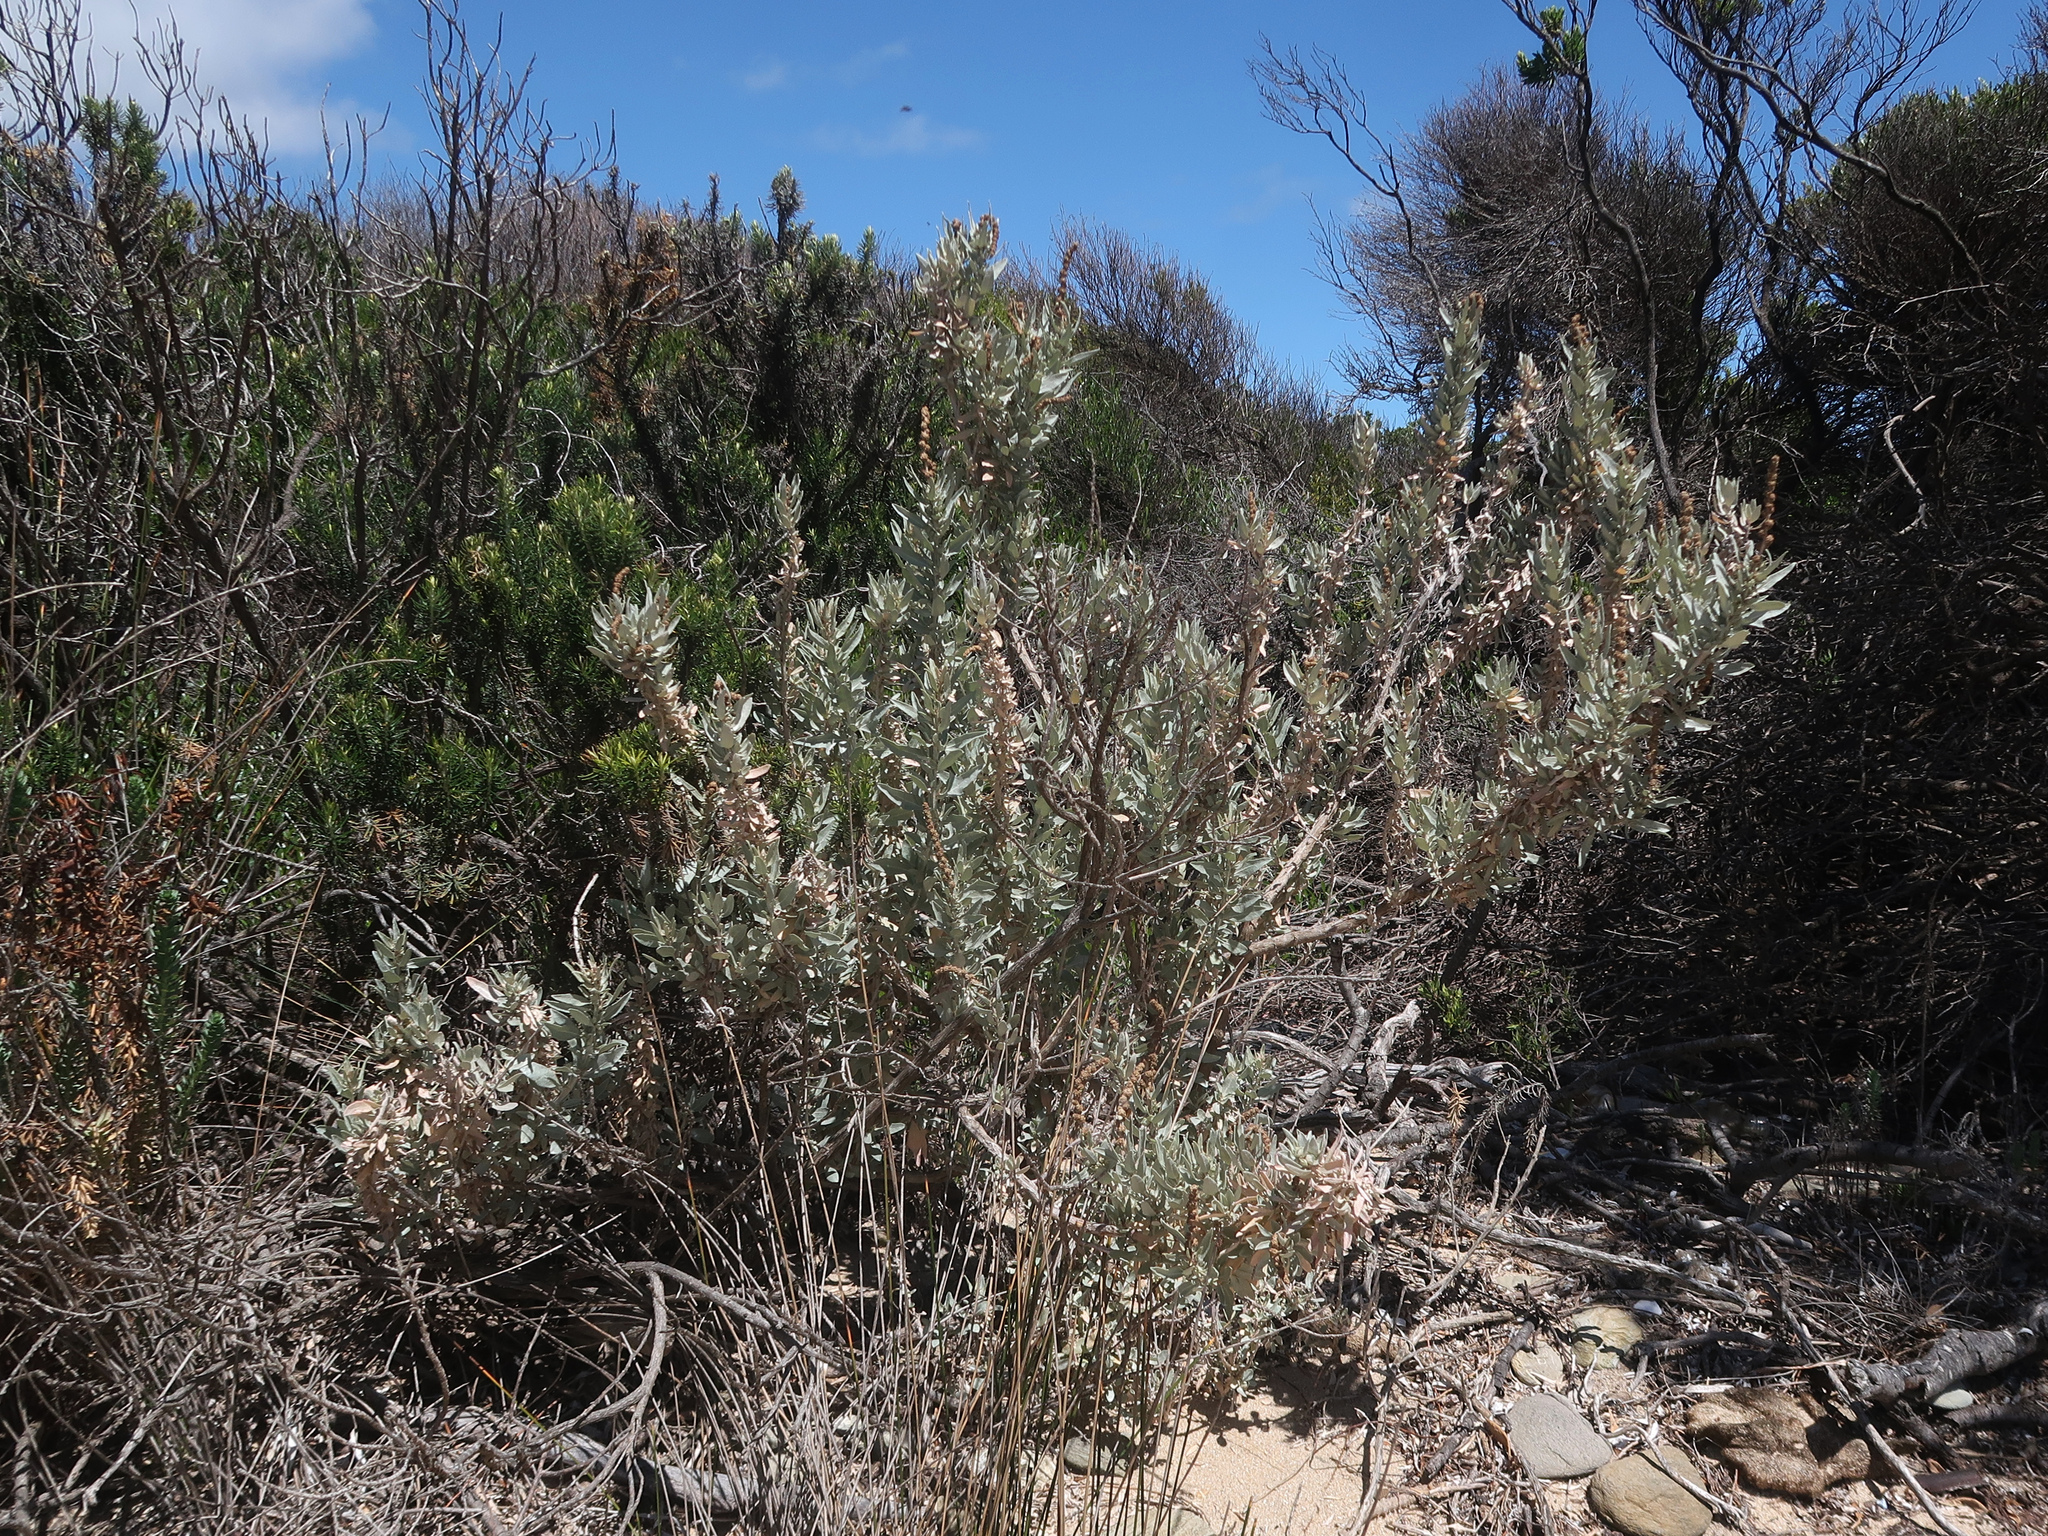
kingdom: Plantae
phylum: Tracheophyta
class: Magnoliopsida
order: Caryophyllales
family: Amaranthaceae
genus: Atriplex
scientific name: Atriplex cinerea
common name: Grey saltbush
